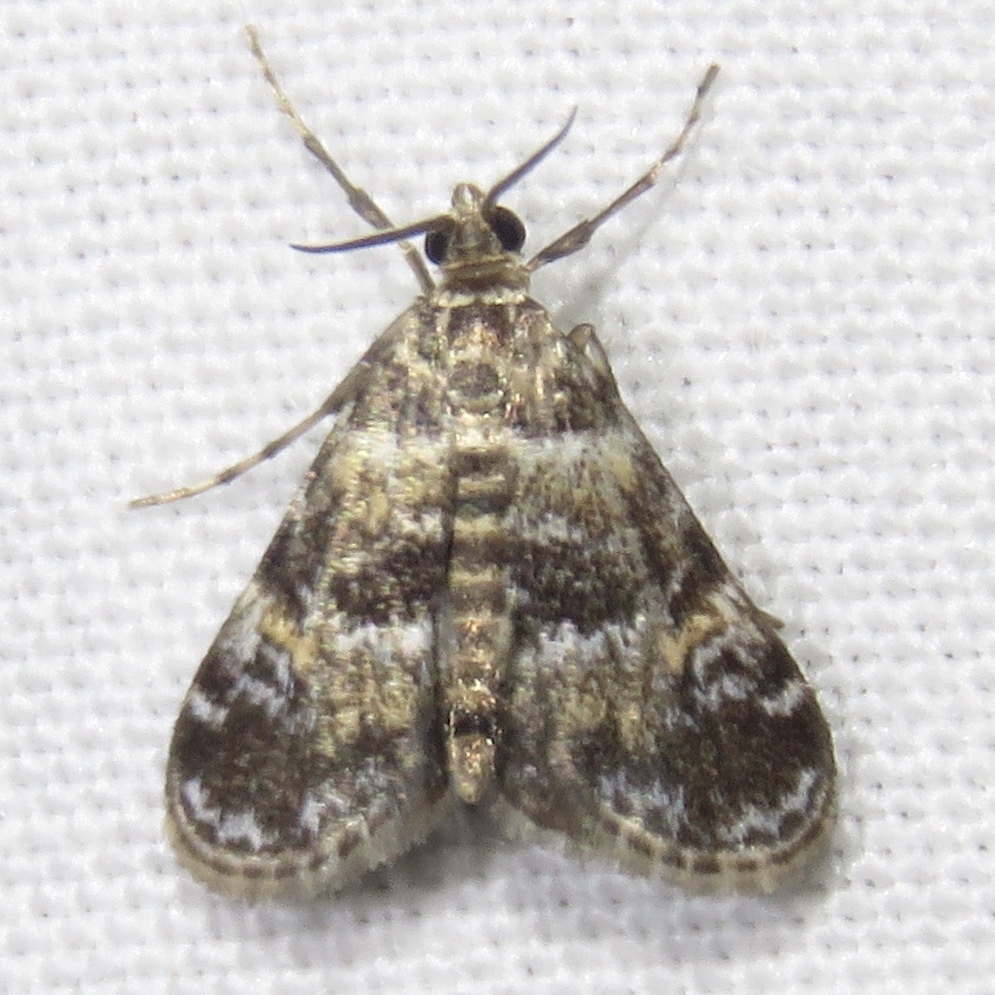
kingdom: Animalia
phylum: Arthropoda
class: Insecta
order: Lepidoptera
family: Crambidae
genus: Elophila
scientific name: Elophila obliteralis
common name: Waterlily leafcutter moth
